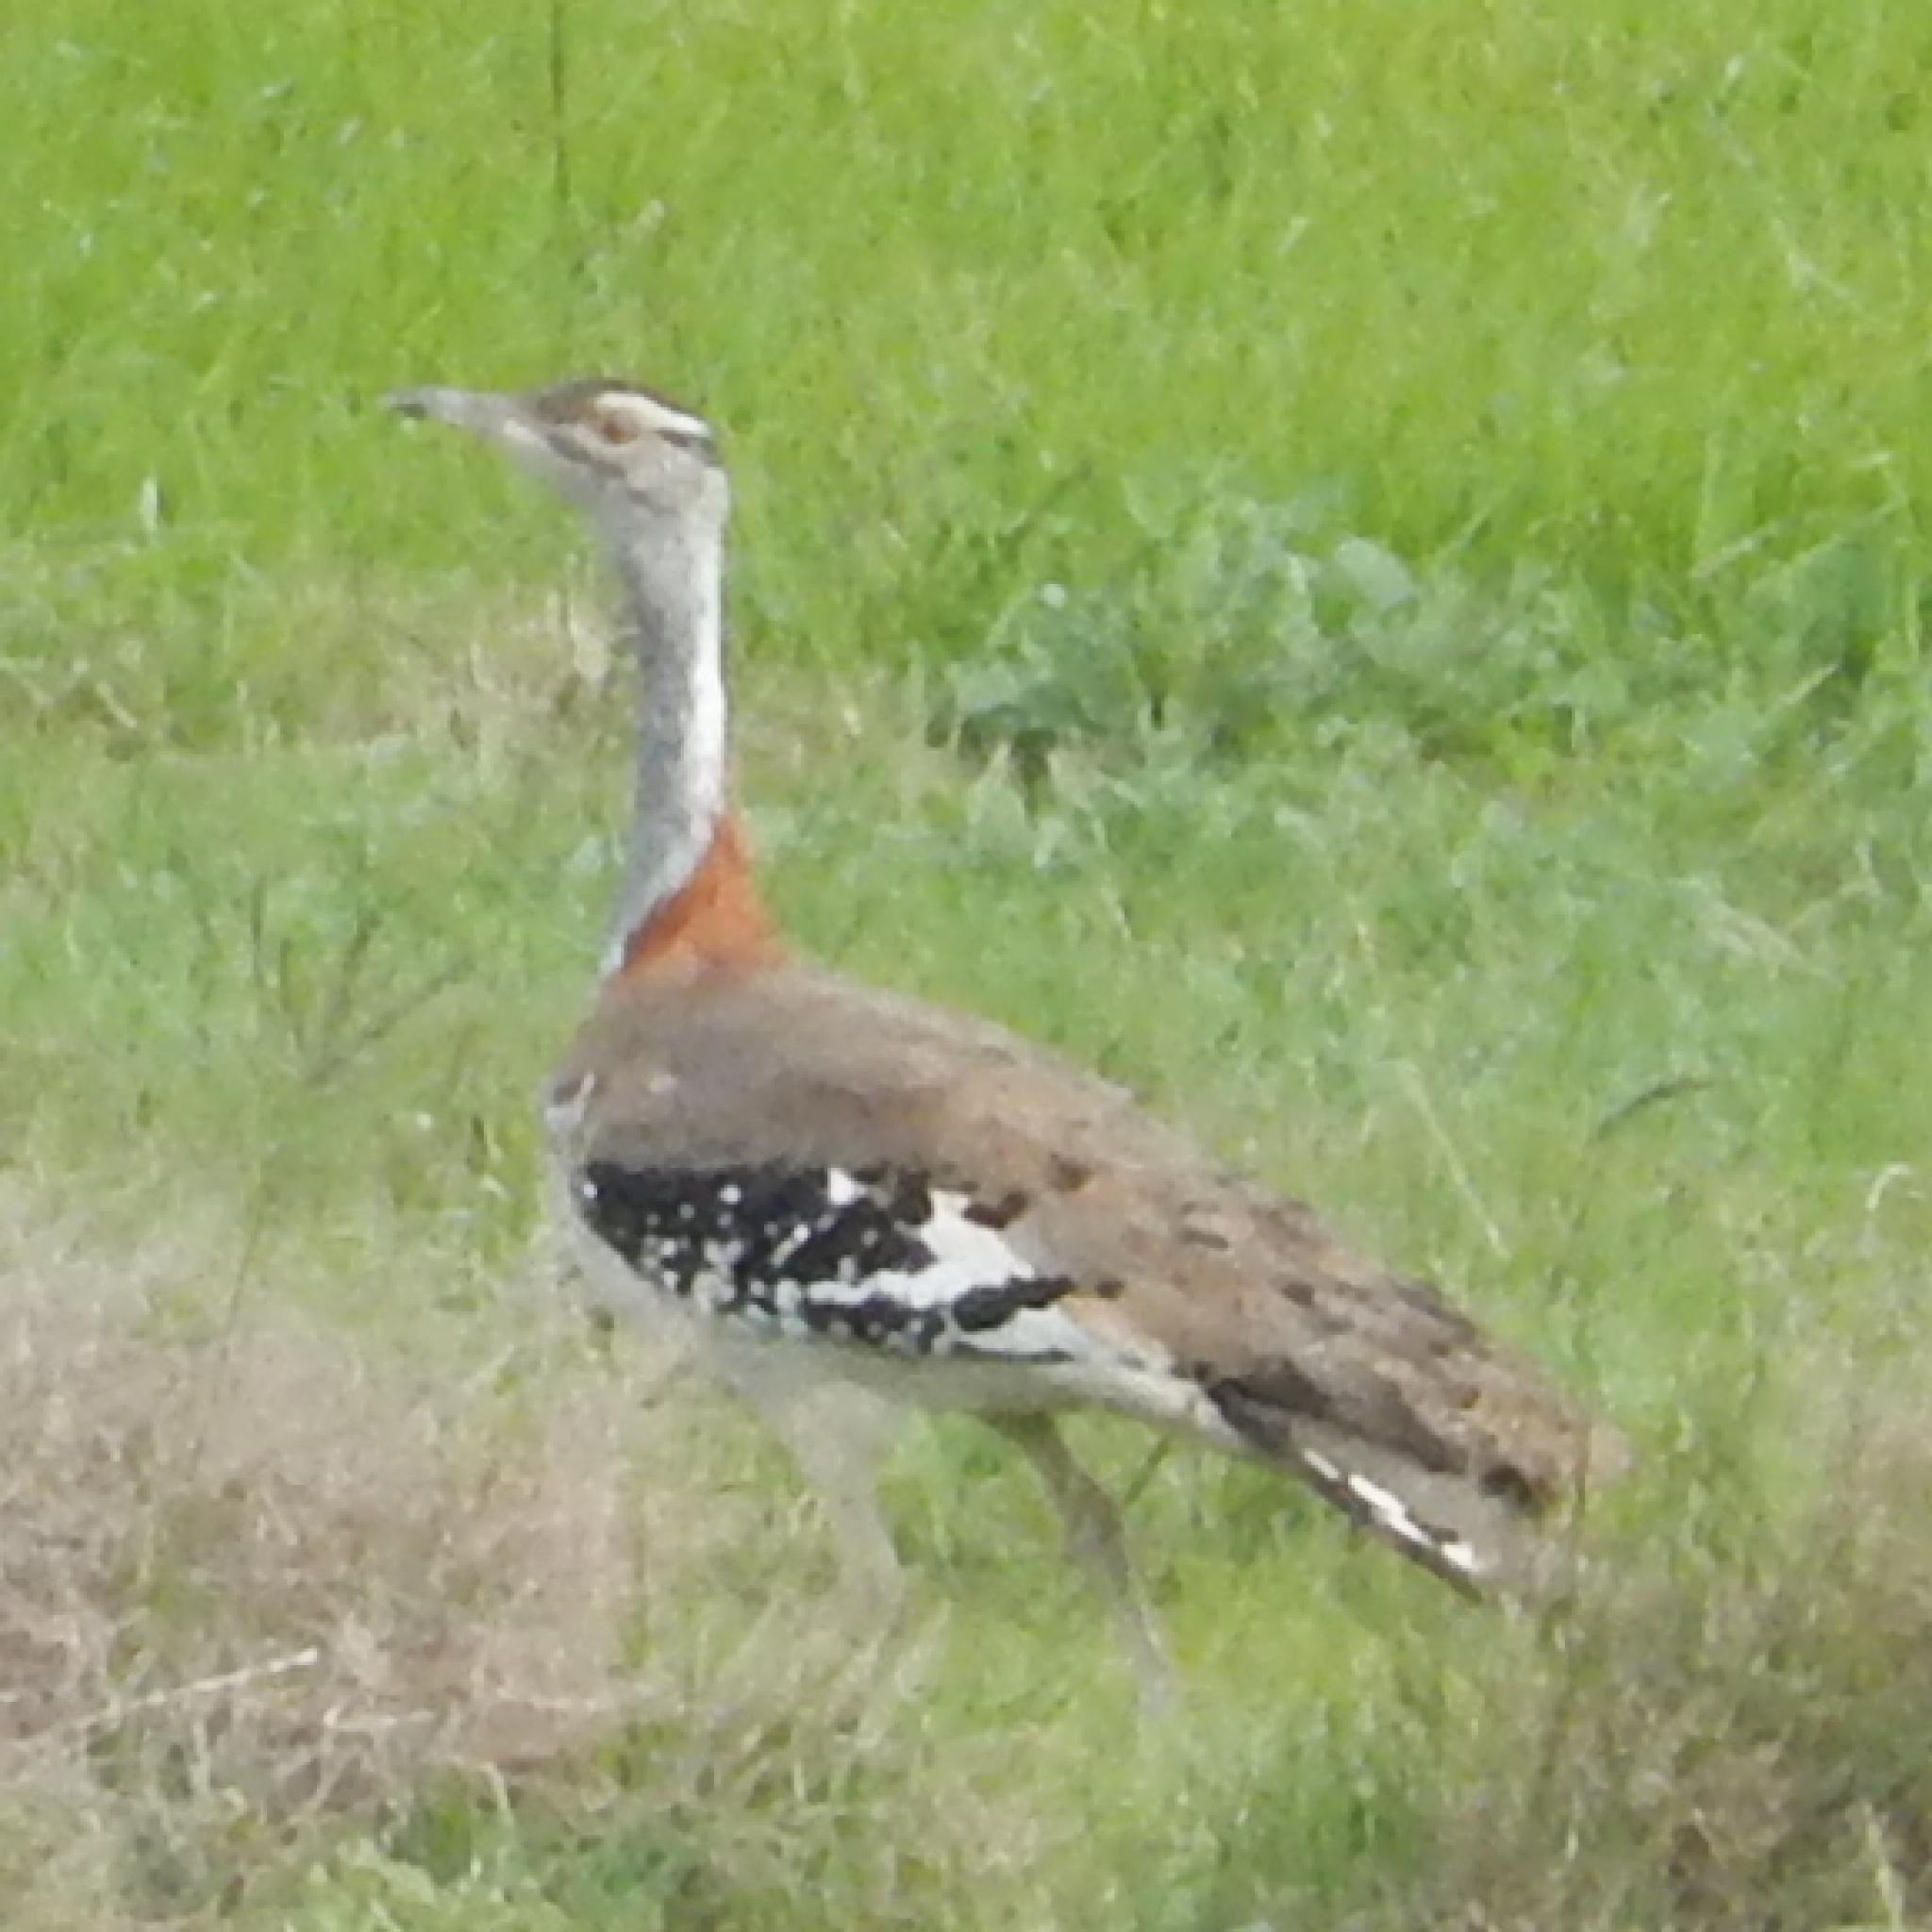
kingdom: Animalia
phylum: Chordata
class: Aves
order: Otidiformes
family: Otididae
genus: Neotis
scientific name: Neotis denhami
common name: Denham's bustard
